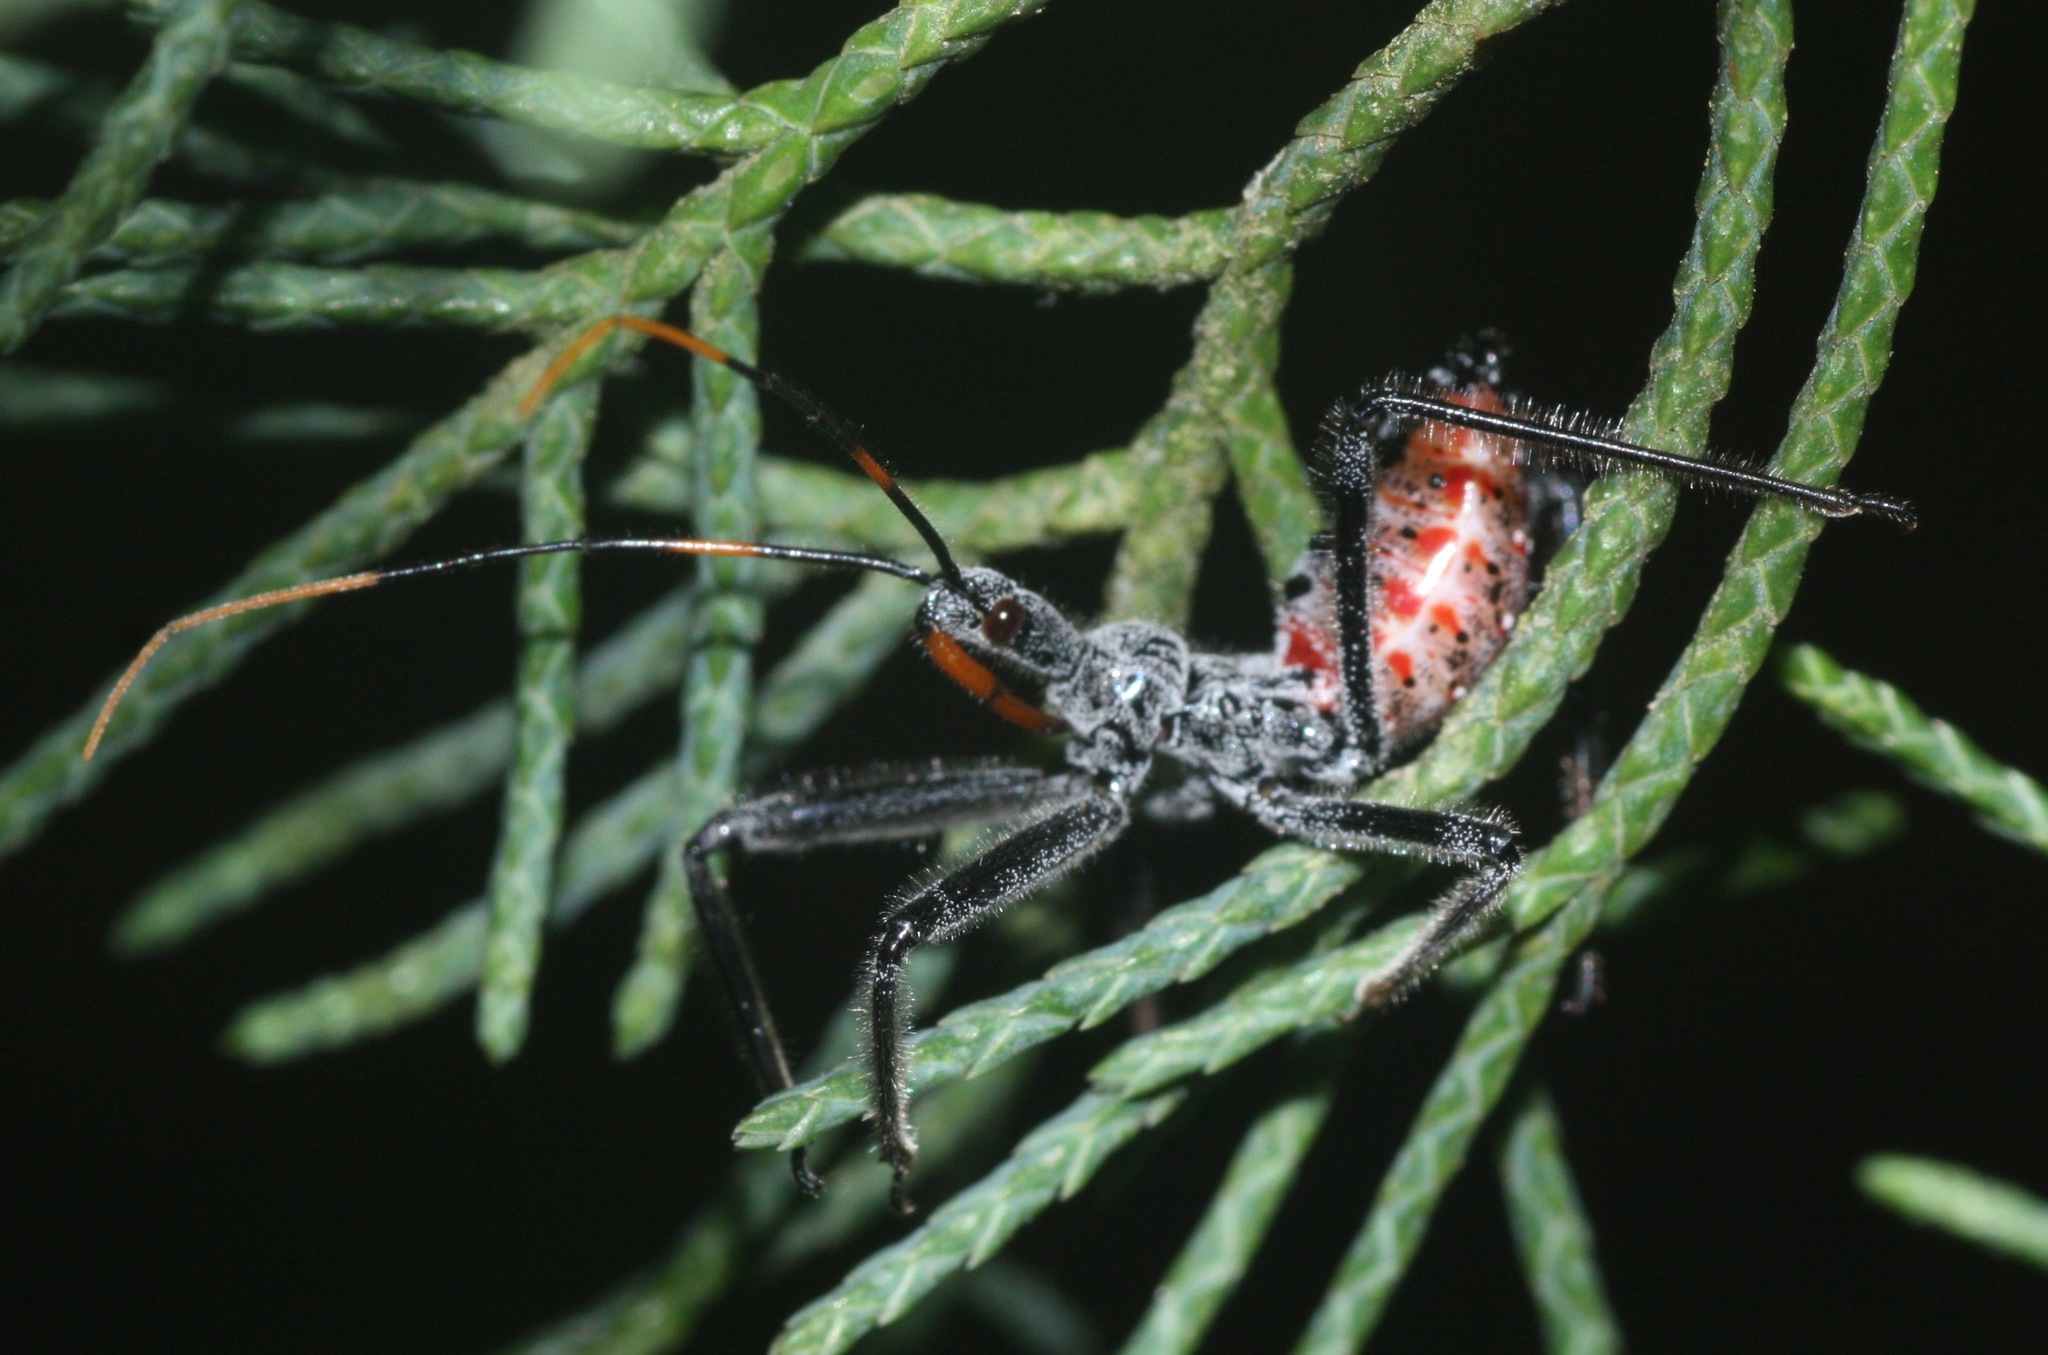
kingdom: Animalia
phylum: Arthropoda
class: Insecta
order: Hemiptera
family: Reduviidae
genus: Arilus
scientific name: Arilus cristatus
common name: North american wheel bug
